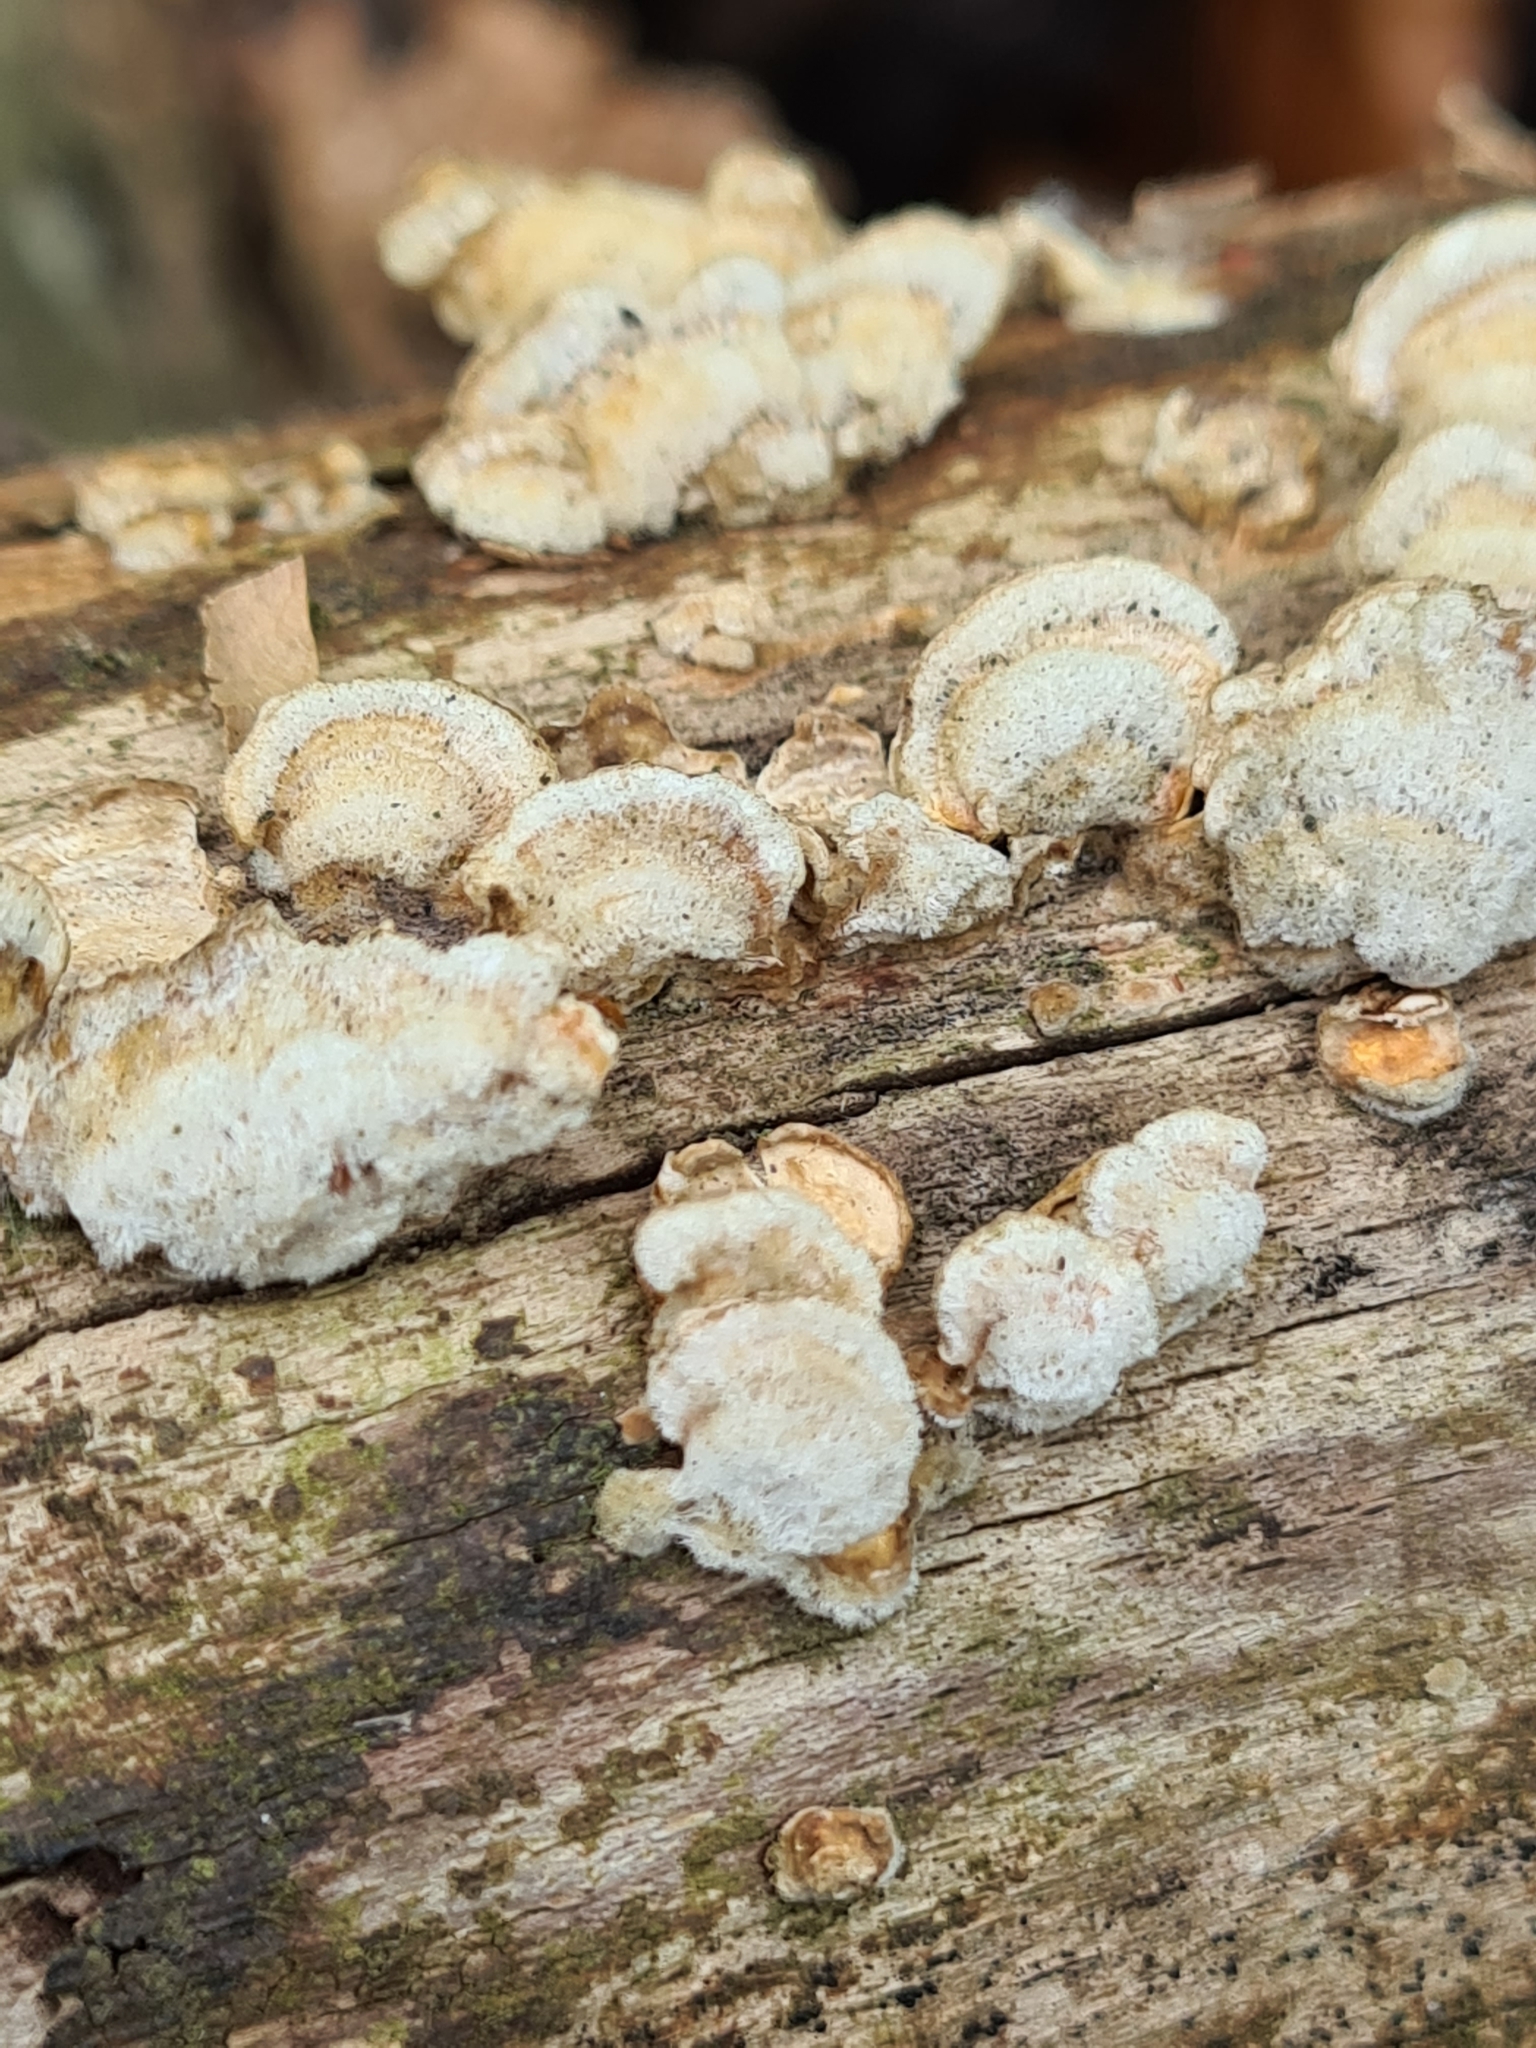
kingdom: Fungi
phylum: Basidiomycota
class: Agaricomycetes
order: Russulales
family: Stereaceae
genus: Stereum
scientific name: Stereum hirsutum
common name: Hairy curtain crust
